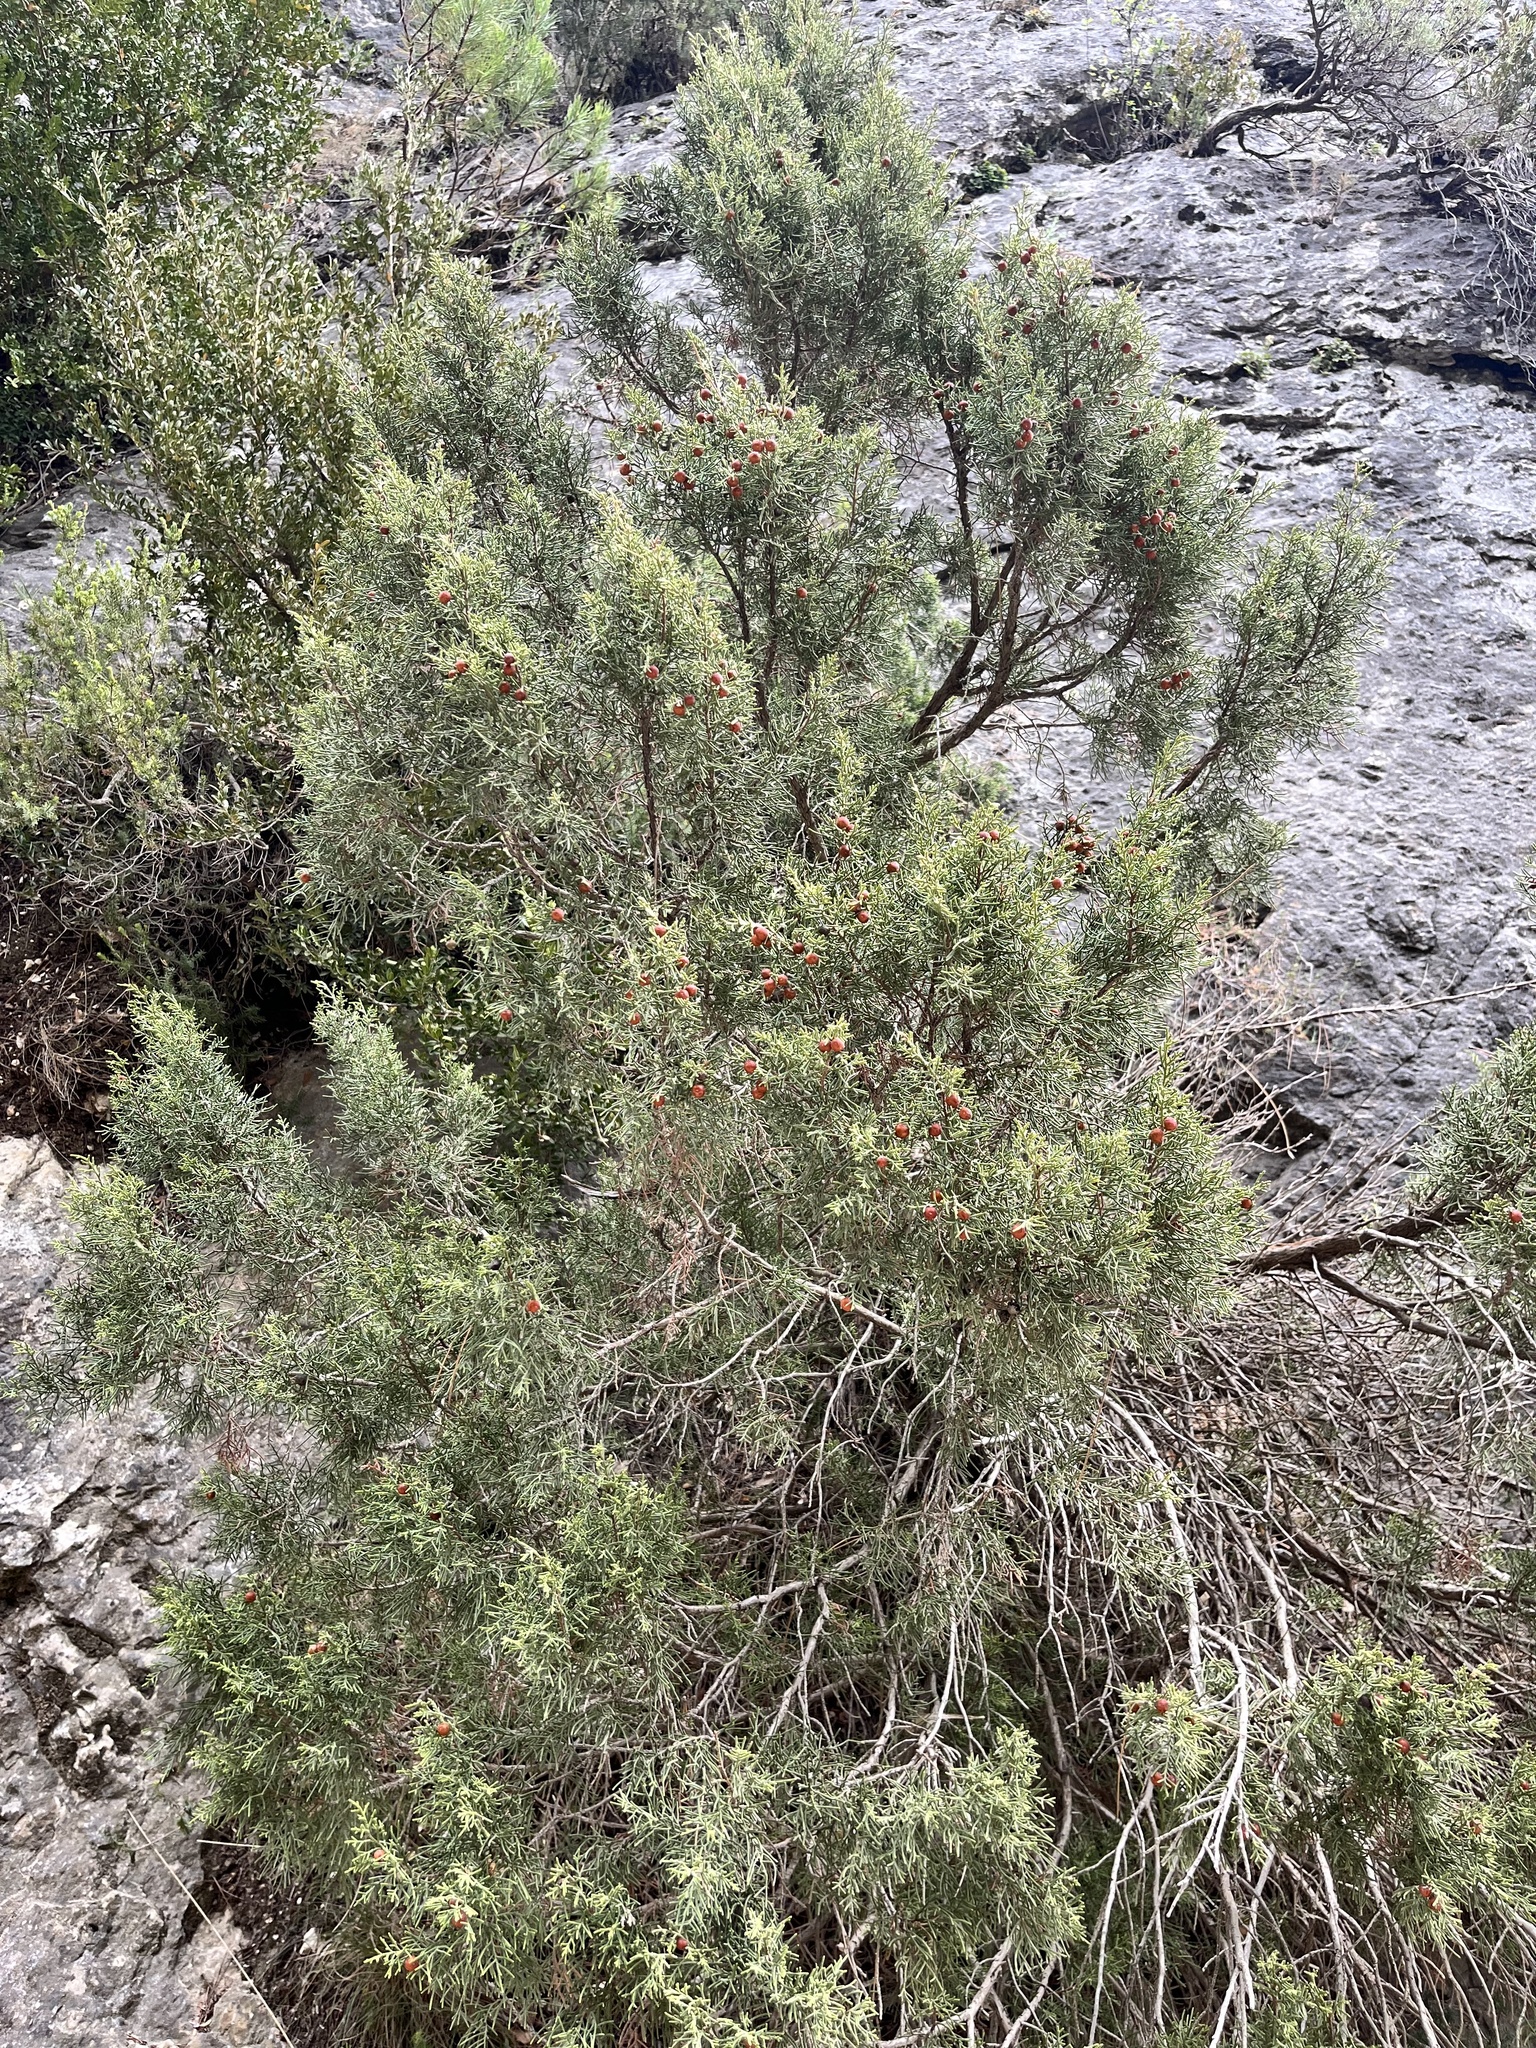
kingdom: Plantae
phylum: Tracheophyta
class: Pinopsida
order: Pinales
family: Cupressaceae
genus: Juniperus
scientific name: Juniperus phoenicea
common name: Phoenician juniper
